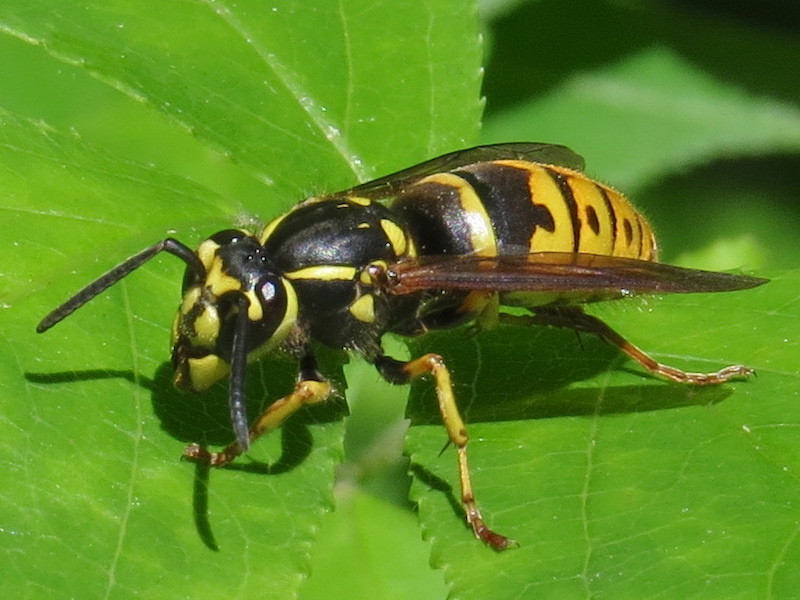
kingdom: Animalia
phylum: Arthropoda
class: Insecta
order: Hymenoptera
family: Vespidae
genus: Vespula
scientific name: Vespula flavopilosa
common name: Downy yellowjacket
